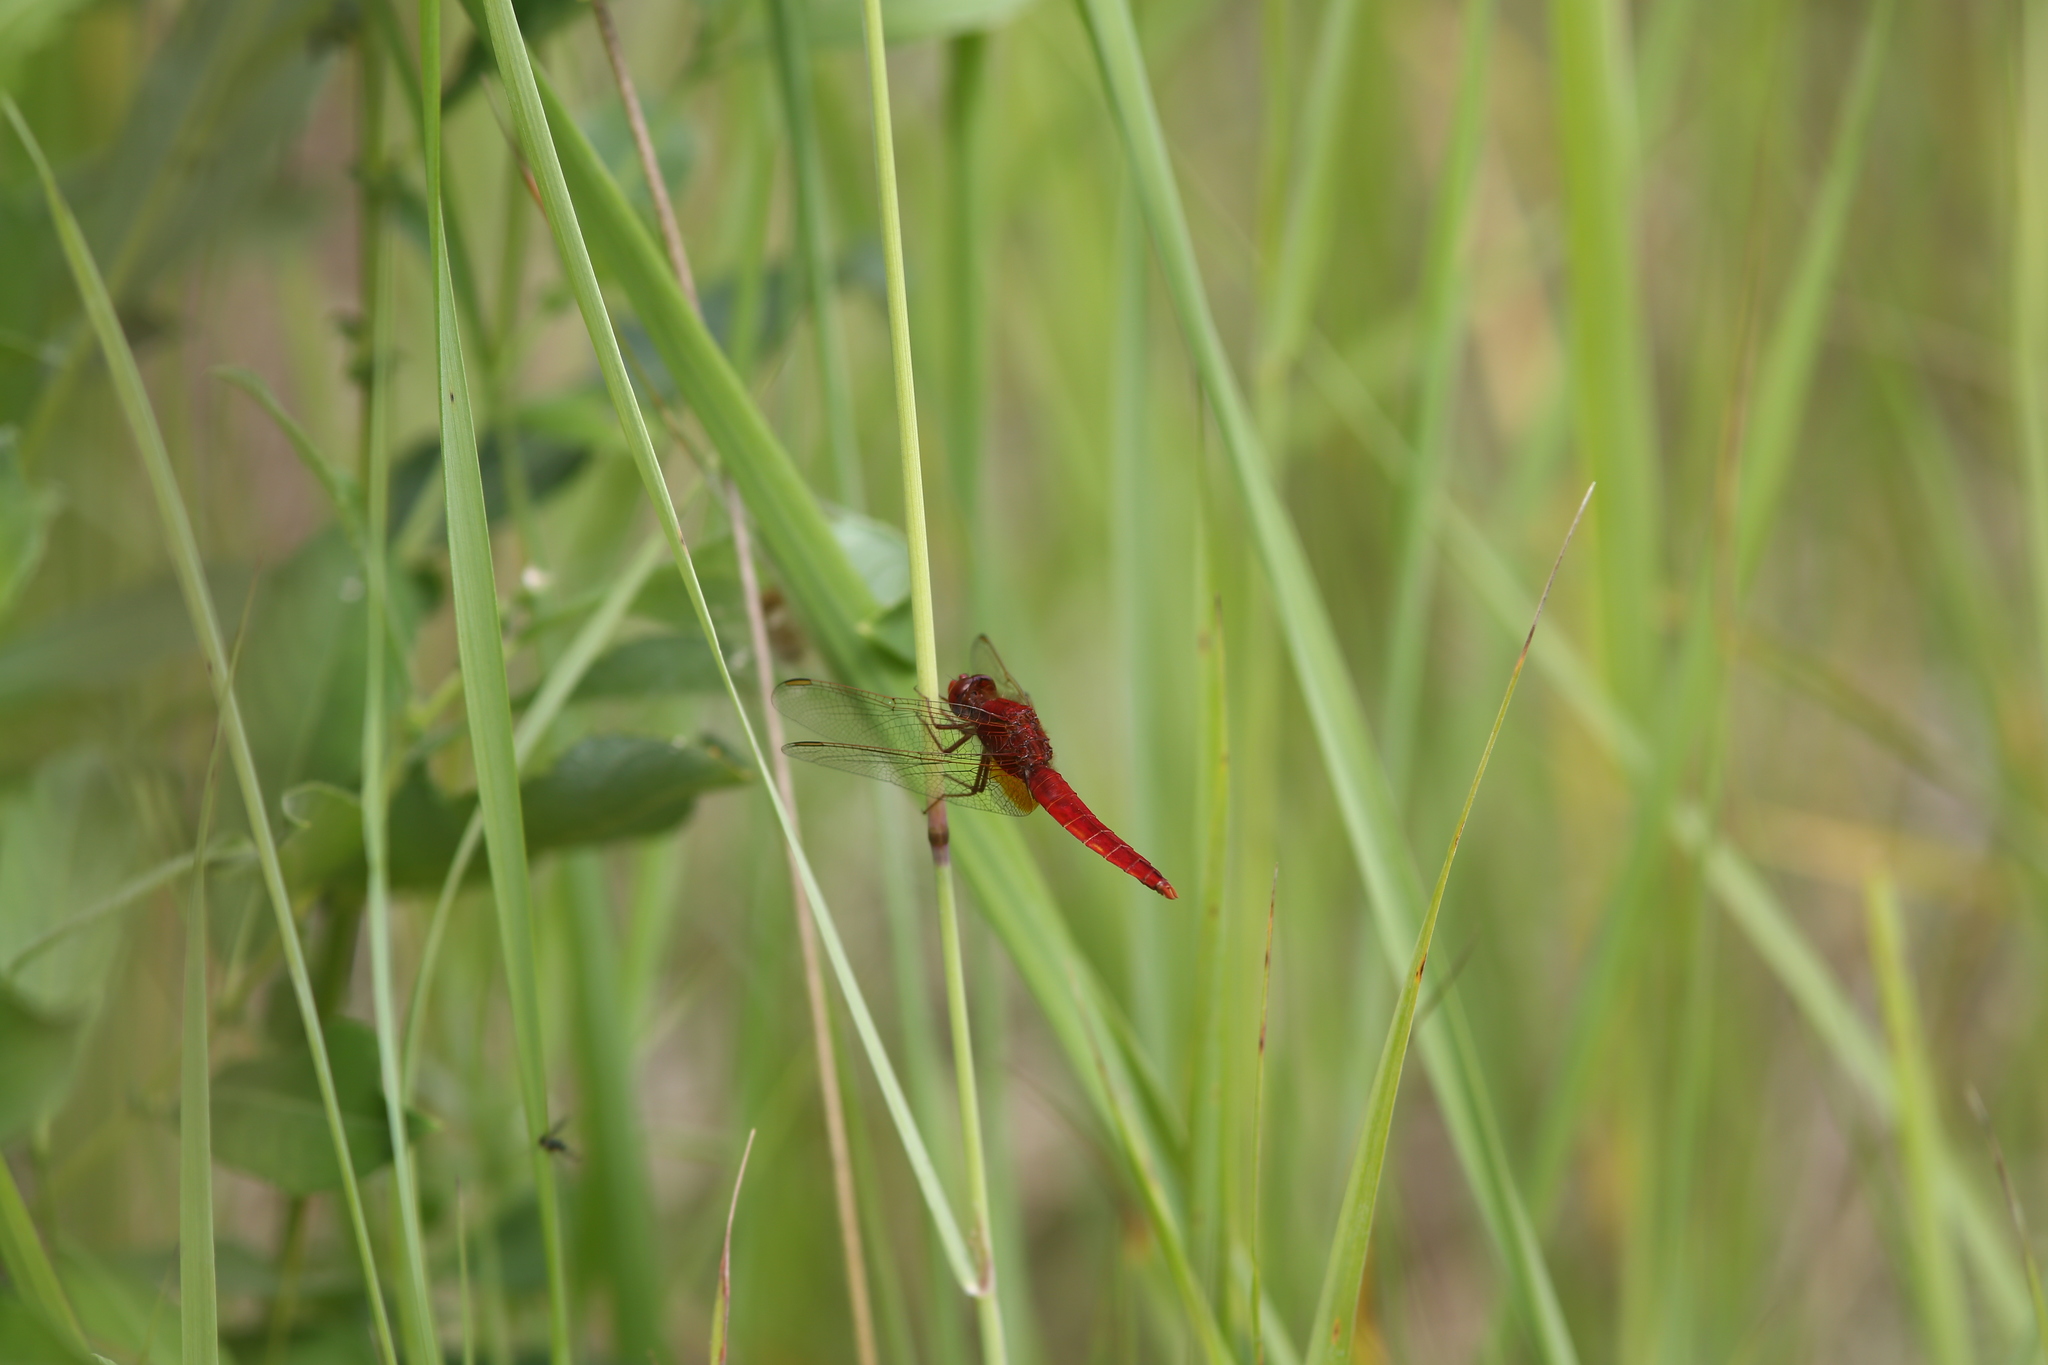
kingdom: Animalia
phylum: Arthropoda
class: Insecta
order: Odonata
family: Libellulidae
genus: Crocothemis
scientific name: Crocothemis erythraea
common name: Scarlet dragonfly
